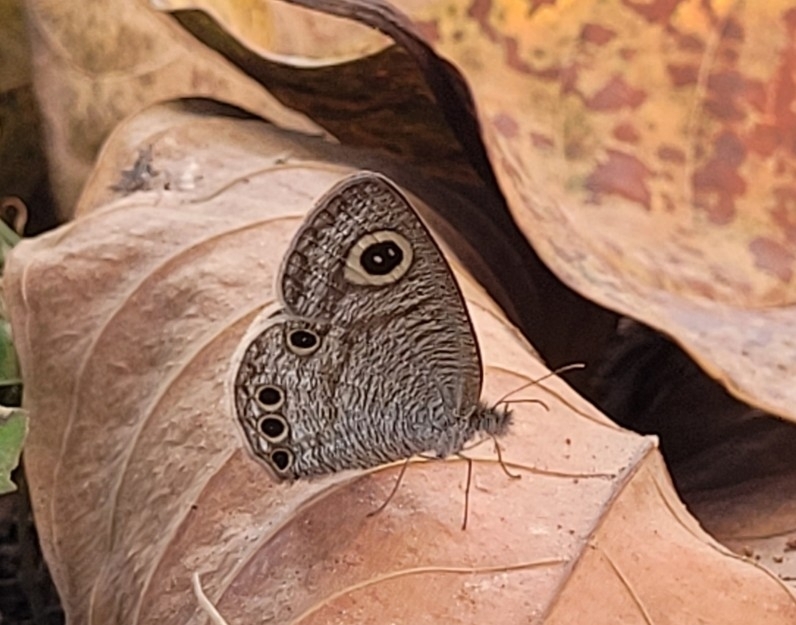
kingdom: Animalia
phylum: Arthropoda
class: Insecta
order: Lepidoptera
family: Nymphalidae
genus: Ypthima
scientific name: Ypthima huebneri
